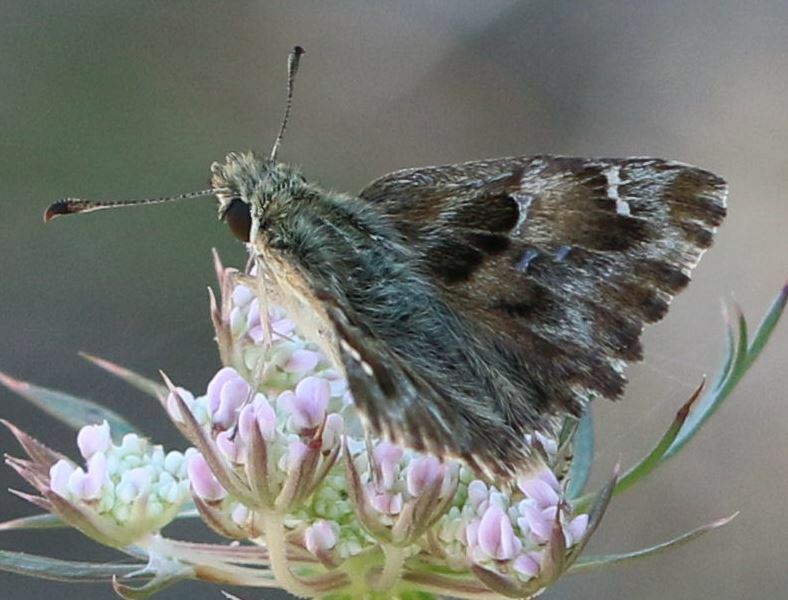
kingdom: Animalia
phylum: Arthropoda
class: Insecta
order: Lepidoptera
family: Hesperiidae
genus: Carcharodus
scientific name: Carcharodus alceae
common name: Mallow skipper
